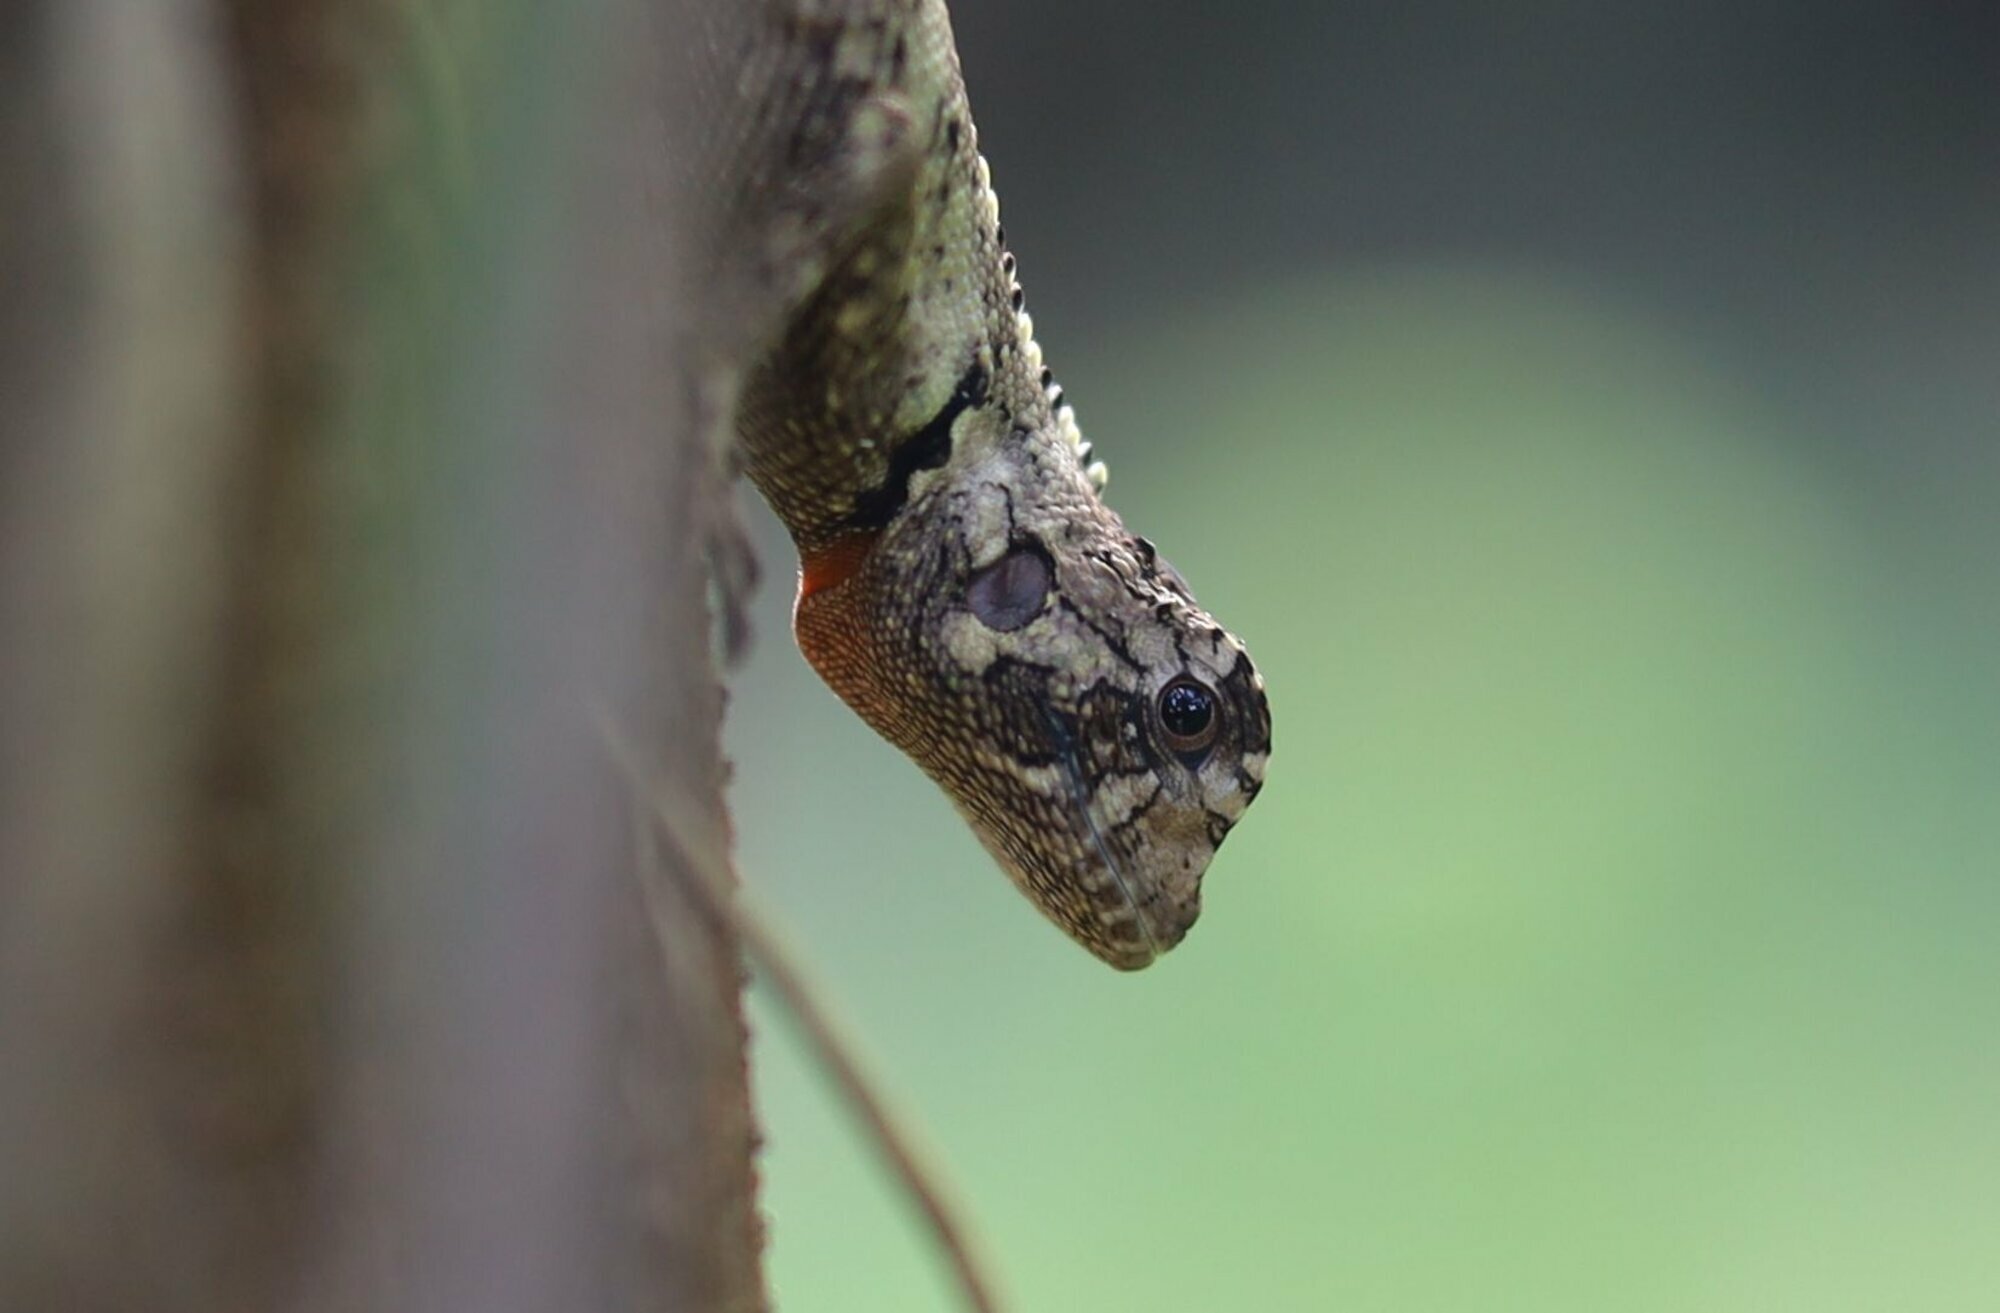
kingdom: Animalia
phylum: Chordata
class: Squamata
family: Tropiduridae
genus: Plica
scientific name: Plica umbra
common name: Harlequin racerunner
